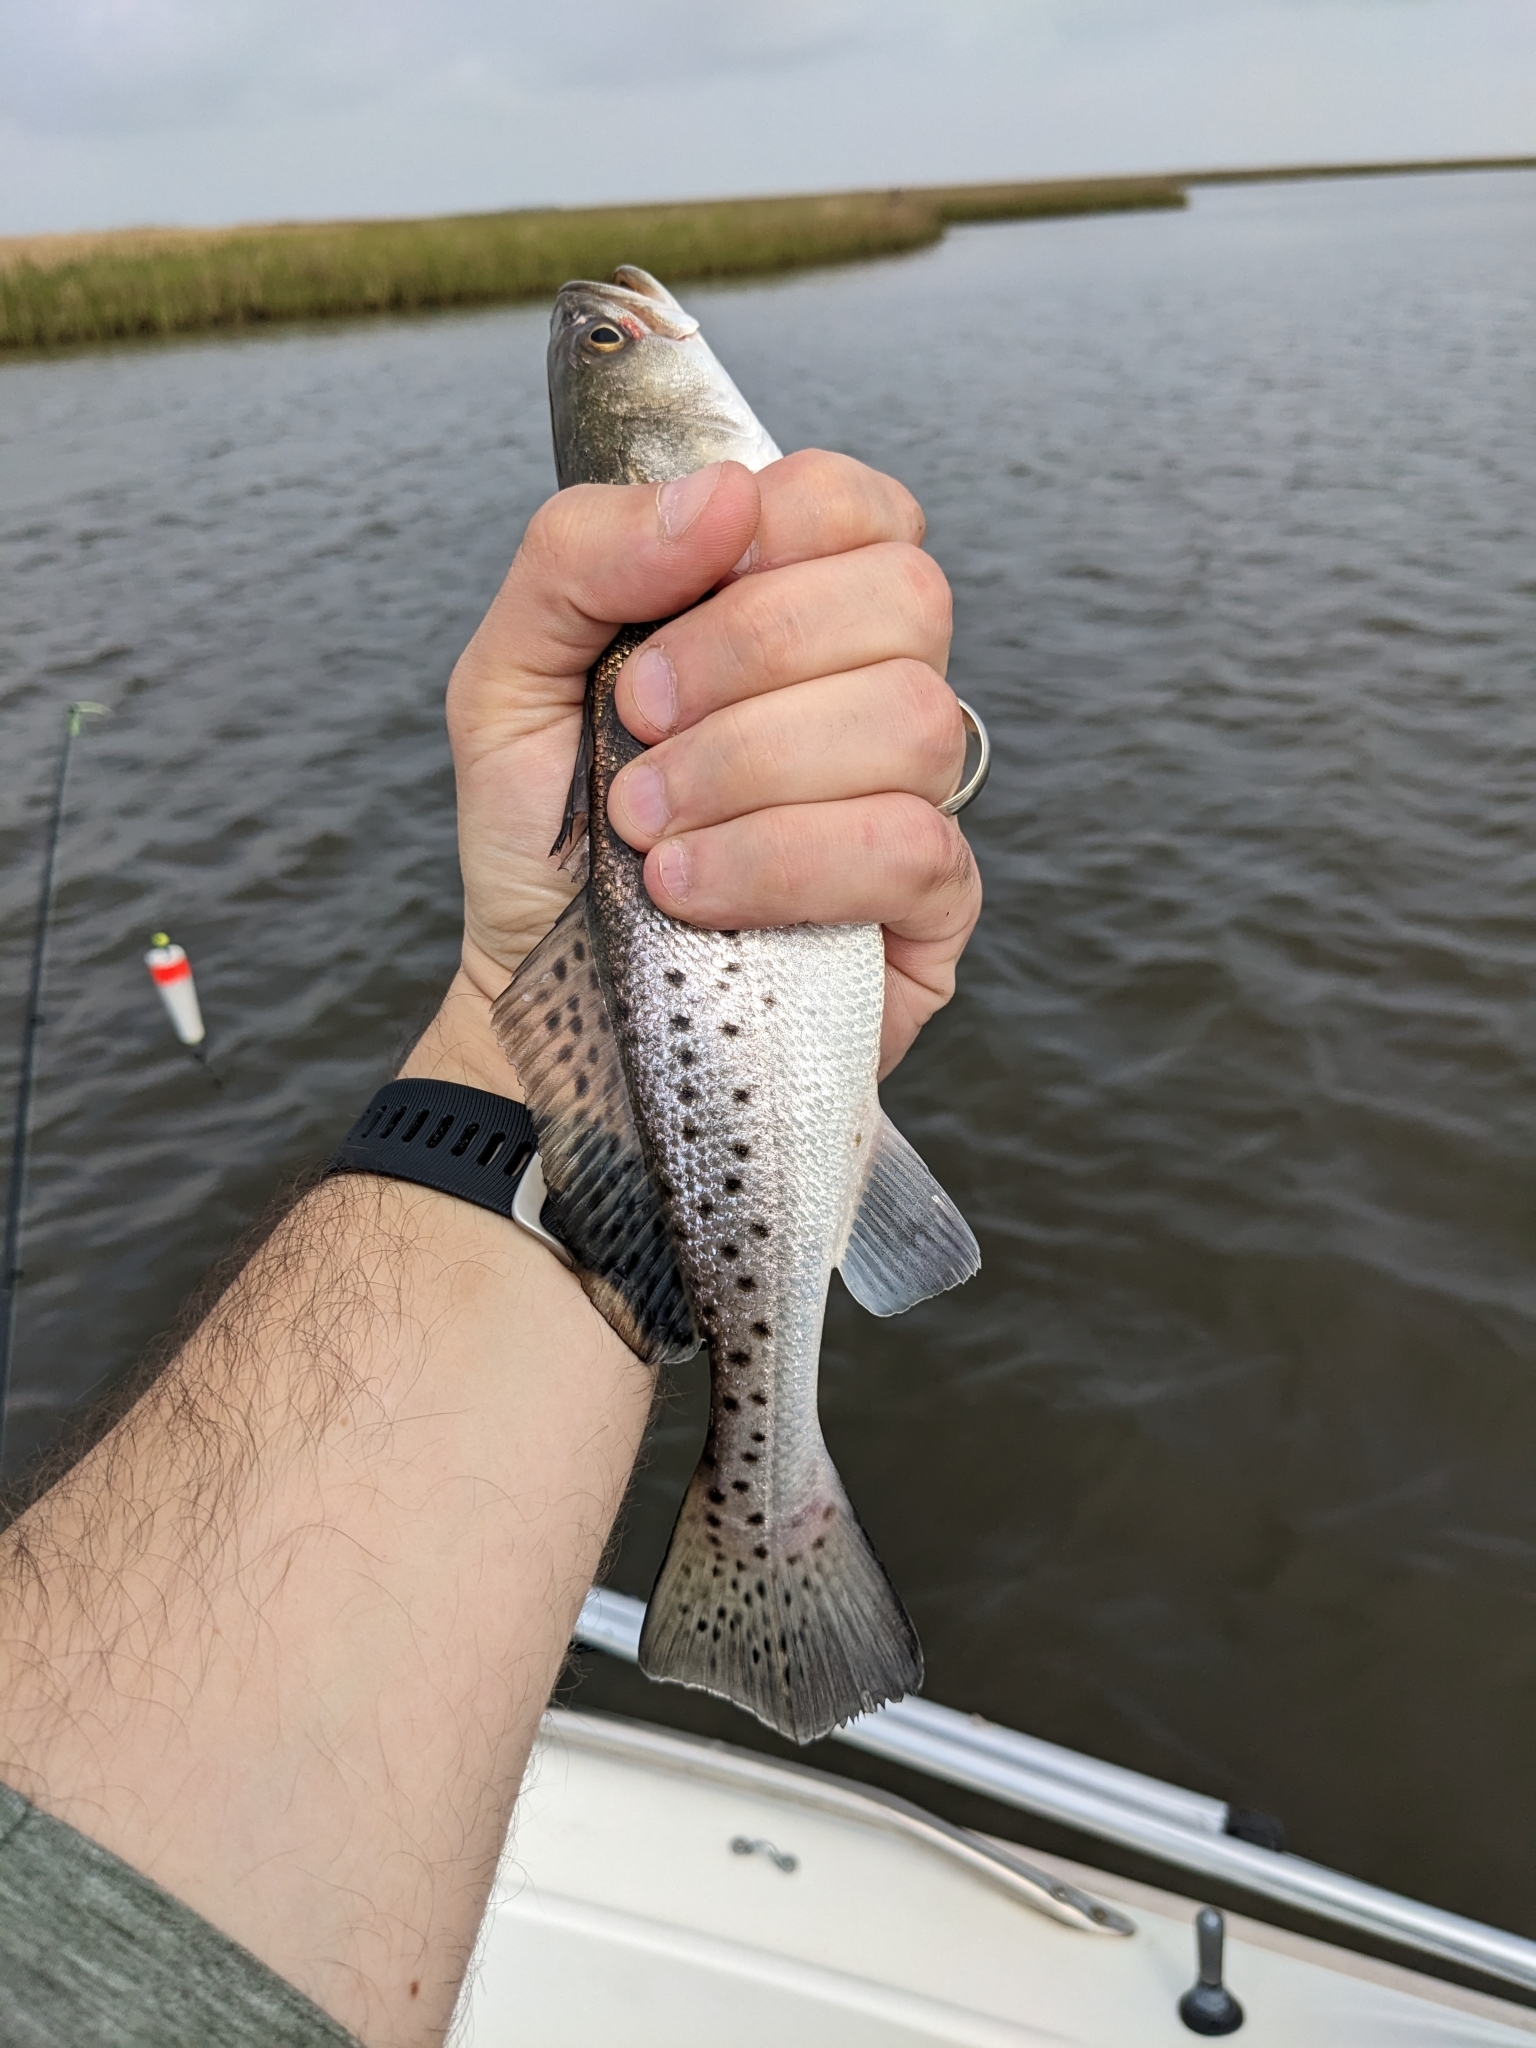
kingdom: Animalia
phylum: Chordata
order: Perciformes
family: Sciaenidae
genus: Cynoscion
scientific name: Cynoscion nebulosus
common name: Spotted seatrout
